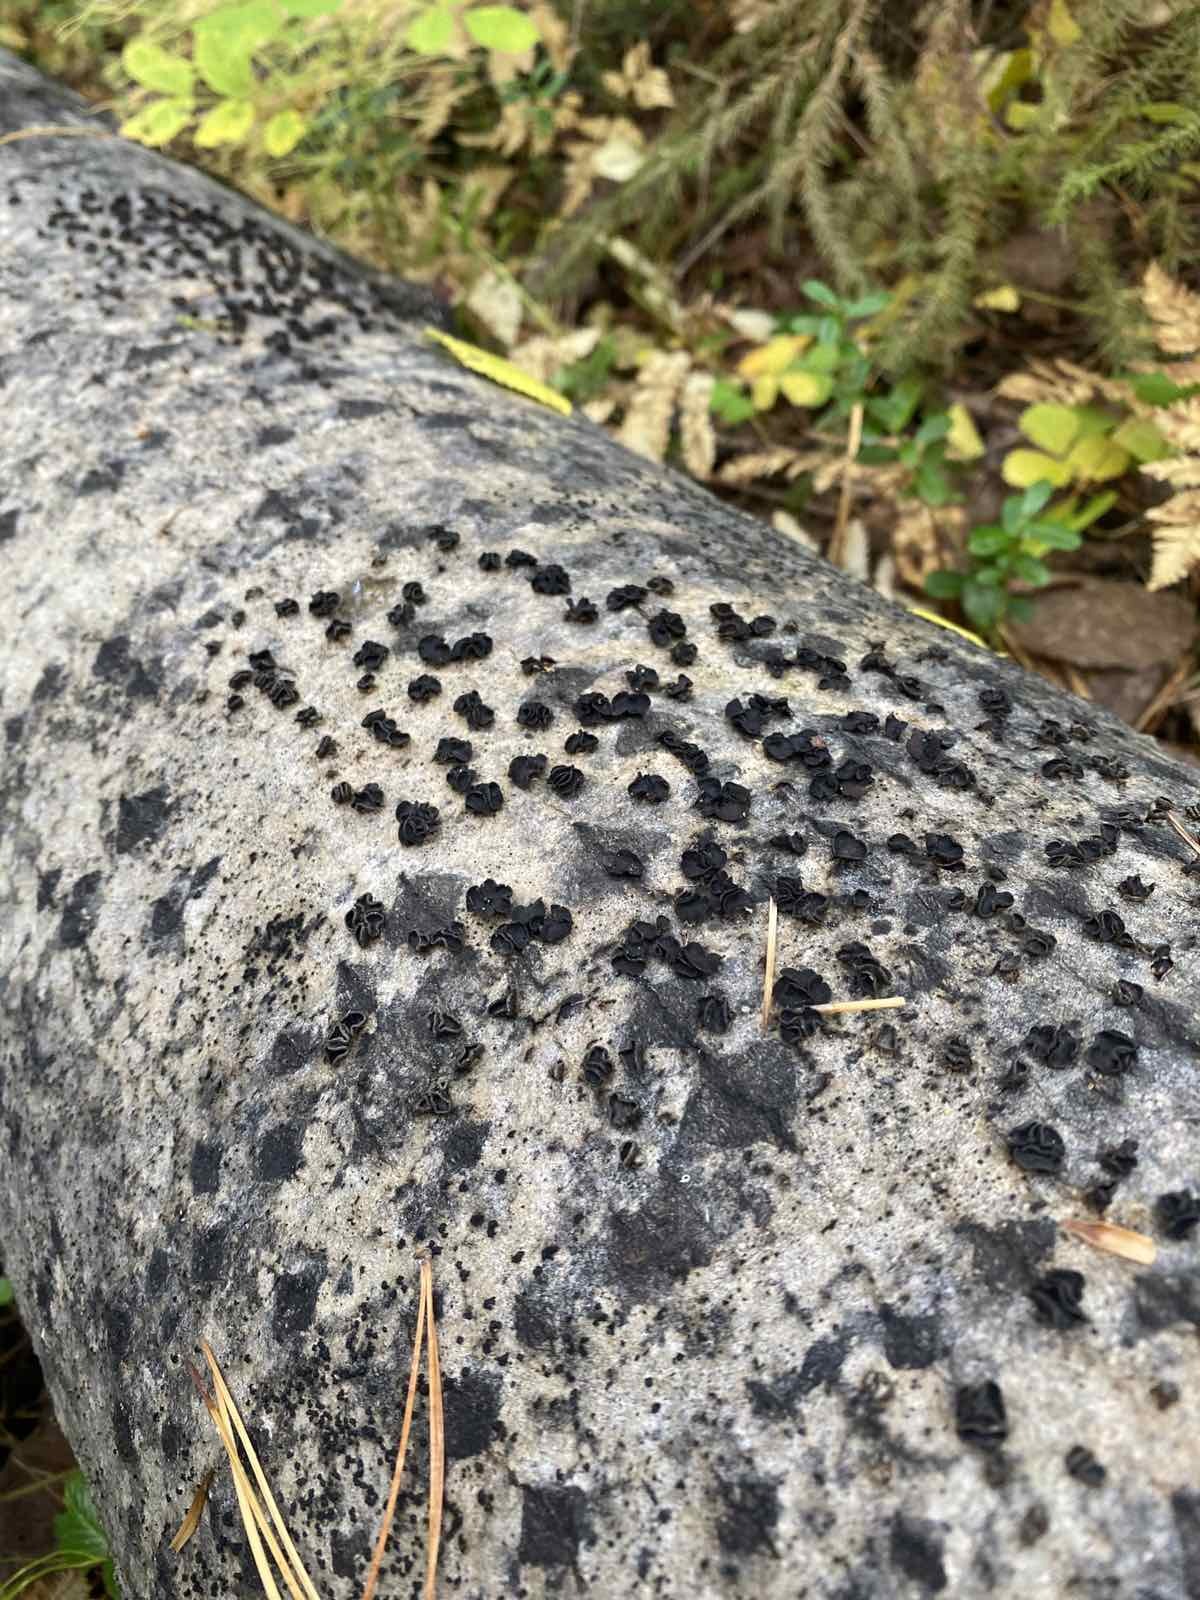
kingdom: Fungi
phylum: Ascomycota
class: Leotiomycetes
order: Helotiales
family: Sclerotiniaceae
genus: Sclerencoelia
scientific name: Sclerencoelia fascicularis
